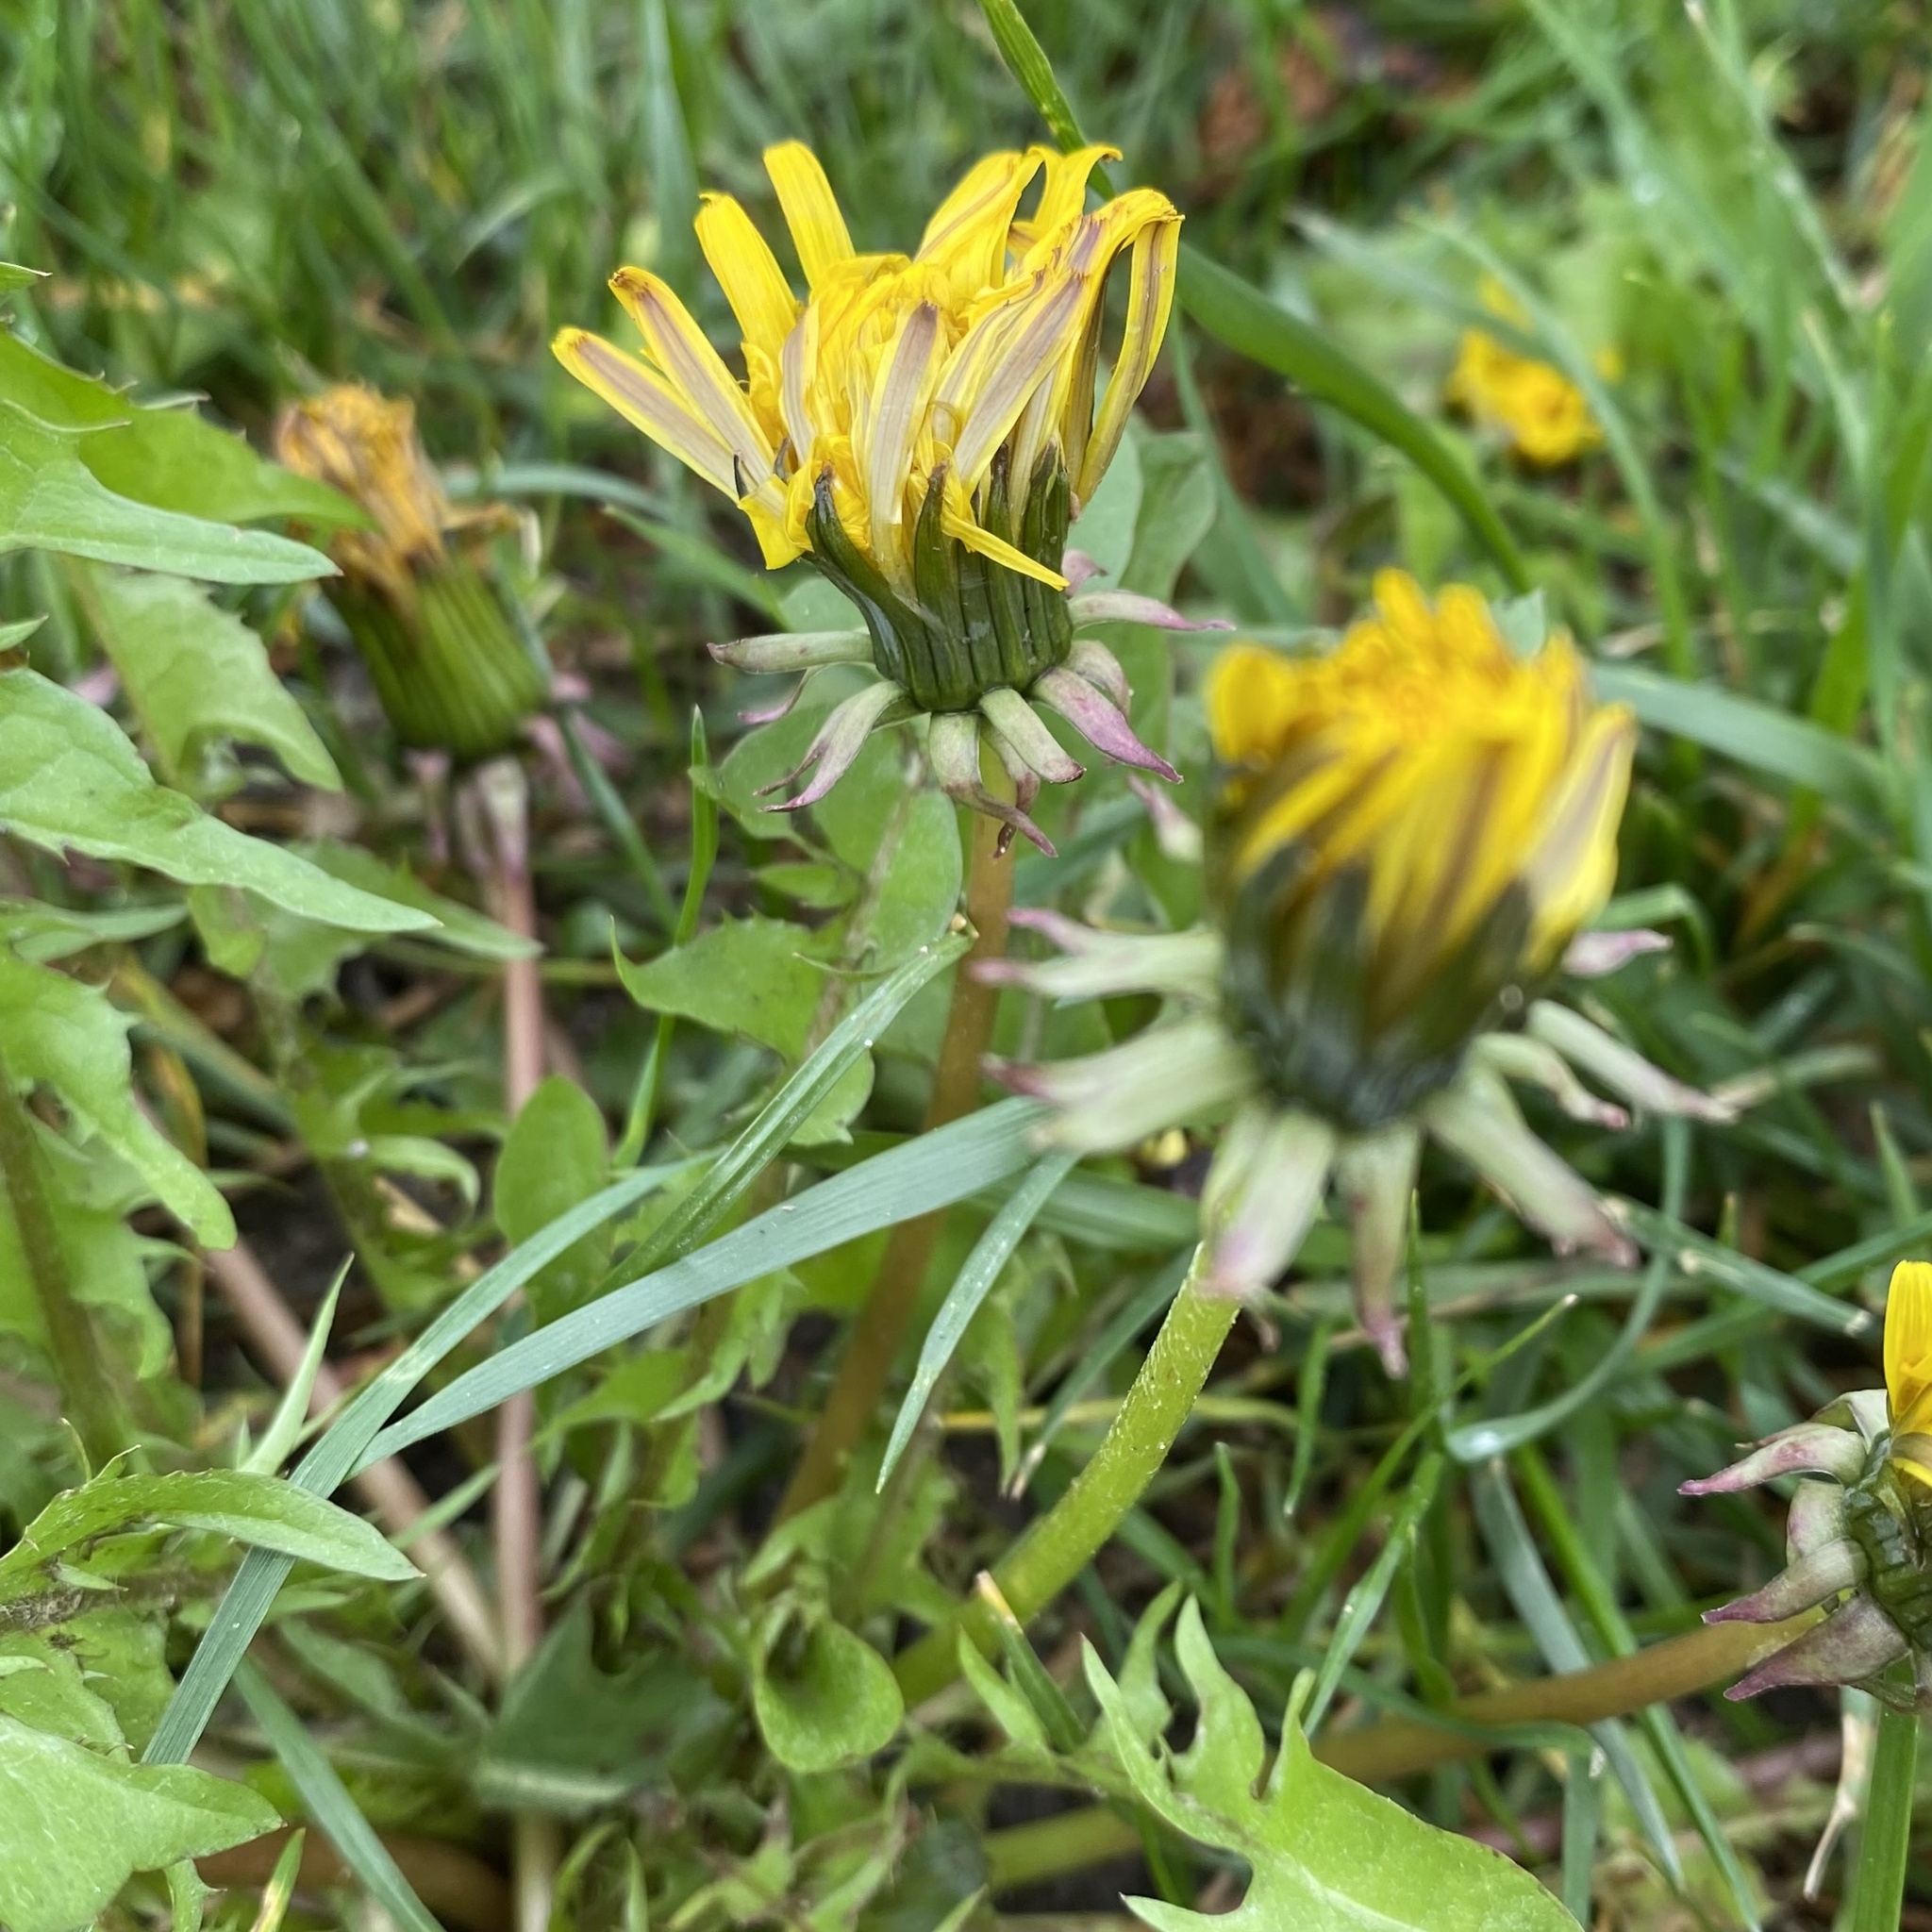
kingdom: Plantae
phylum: Tracheophyta
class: Magnoliopsida
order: Asterales
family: Asteraceae
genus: Taraxacum
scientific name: Taraxacum officinale
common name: Common dandelion
